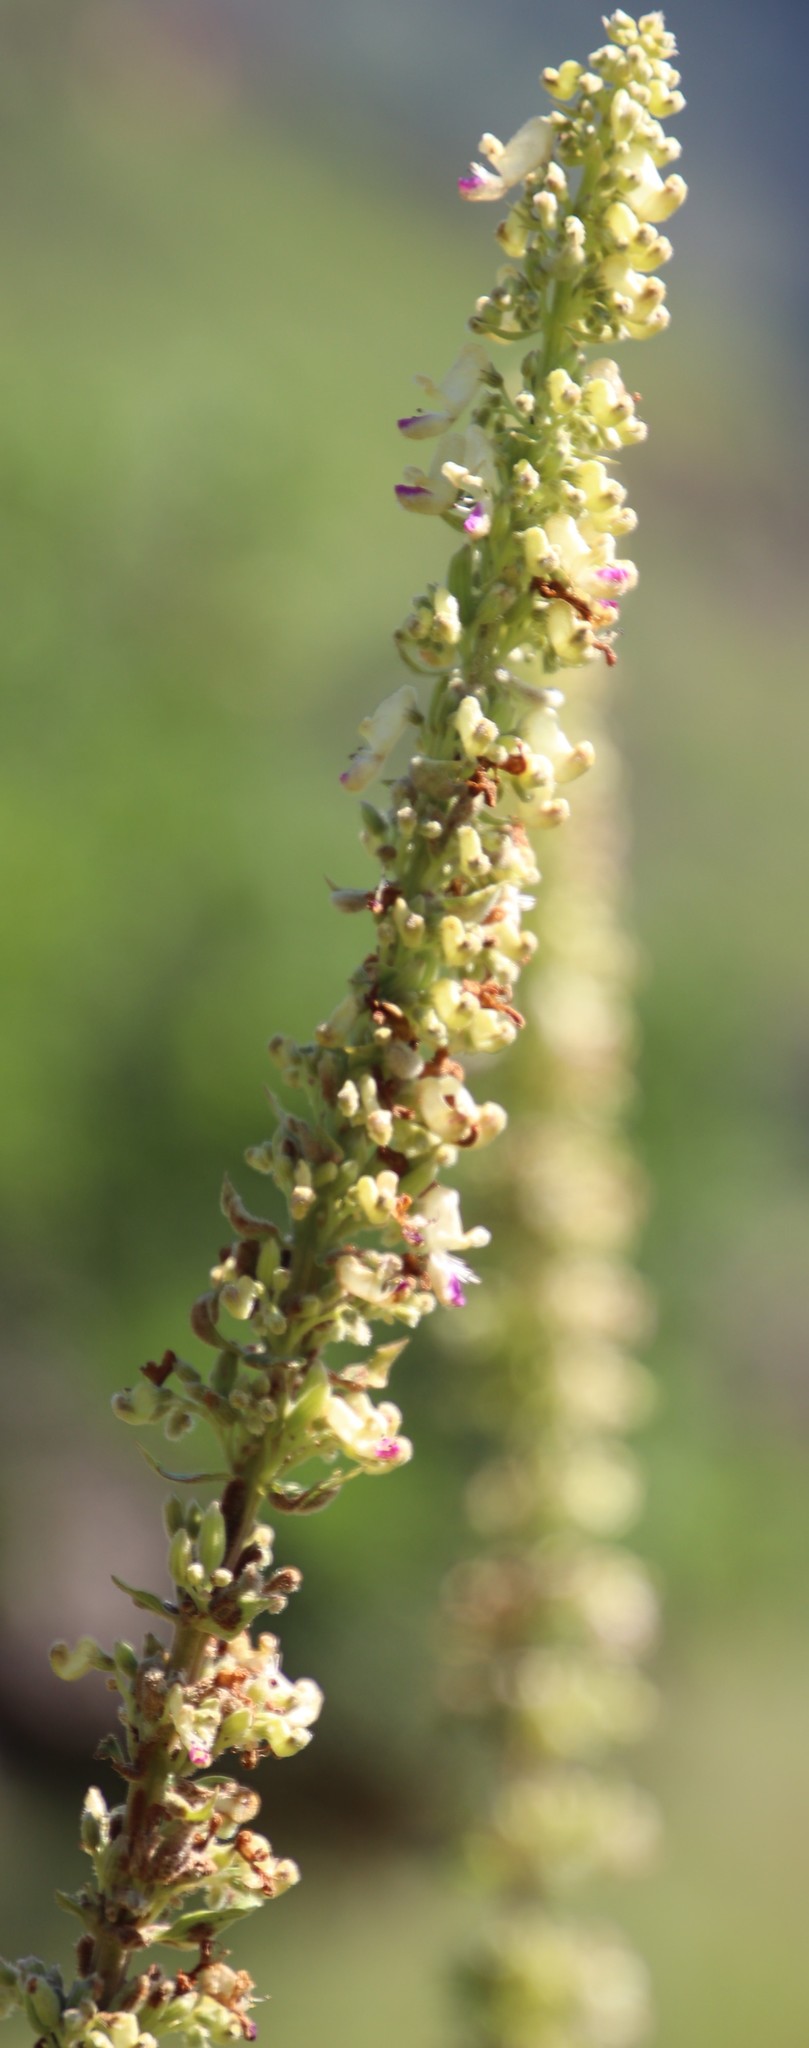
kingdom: Plantae
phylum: Tracheophyta
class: Magnoliopsida
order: Lamiales
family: Lamiaceae
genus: Coleus
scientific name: Coleus calycinus
